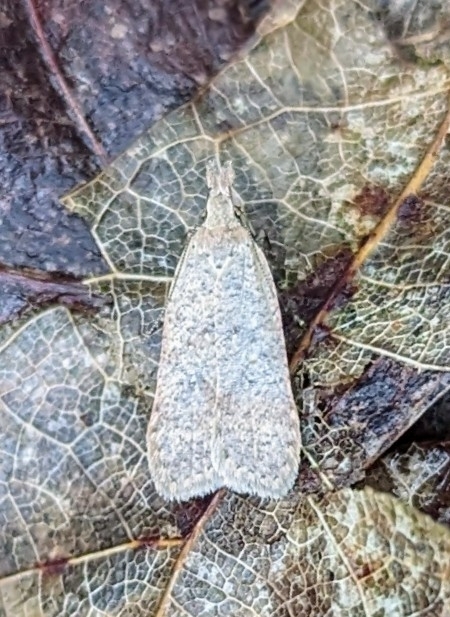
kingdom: Animalia
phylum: Arthropoda
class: Insecta
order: Lepidoptera
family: Gelechiidae
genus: Dichomeris
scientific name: Dichomeris ventrellus
